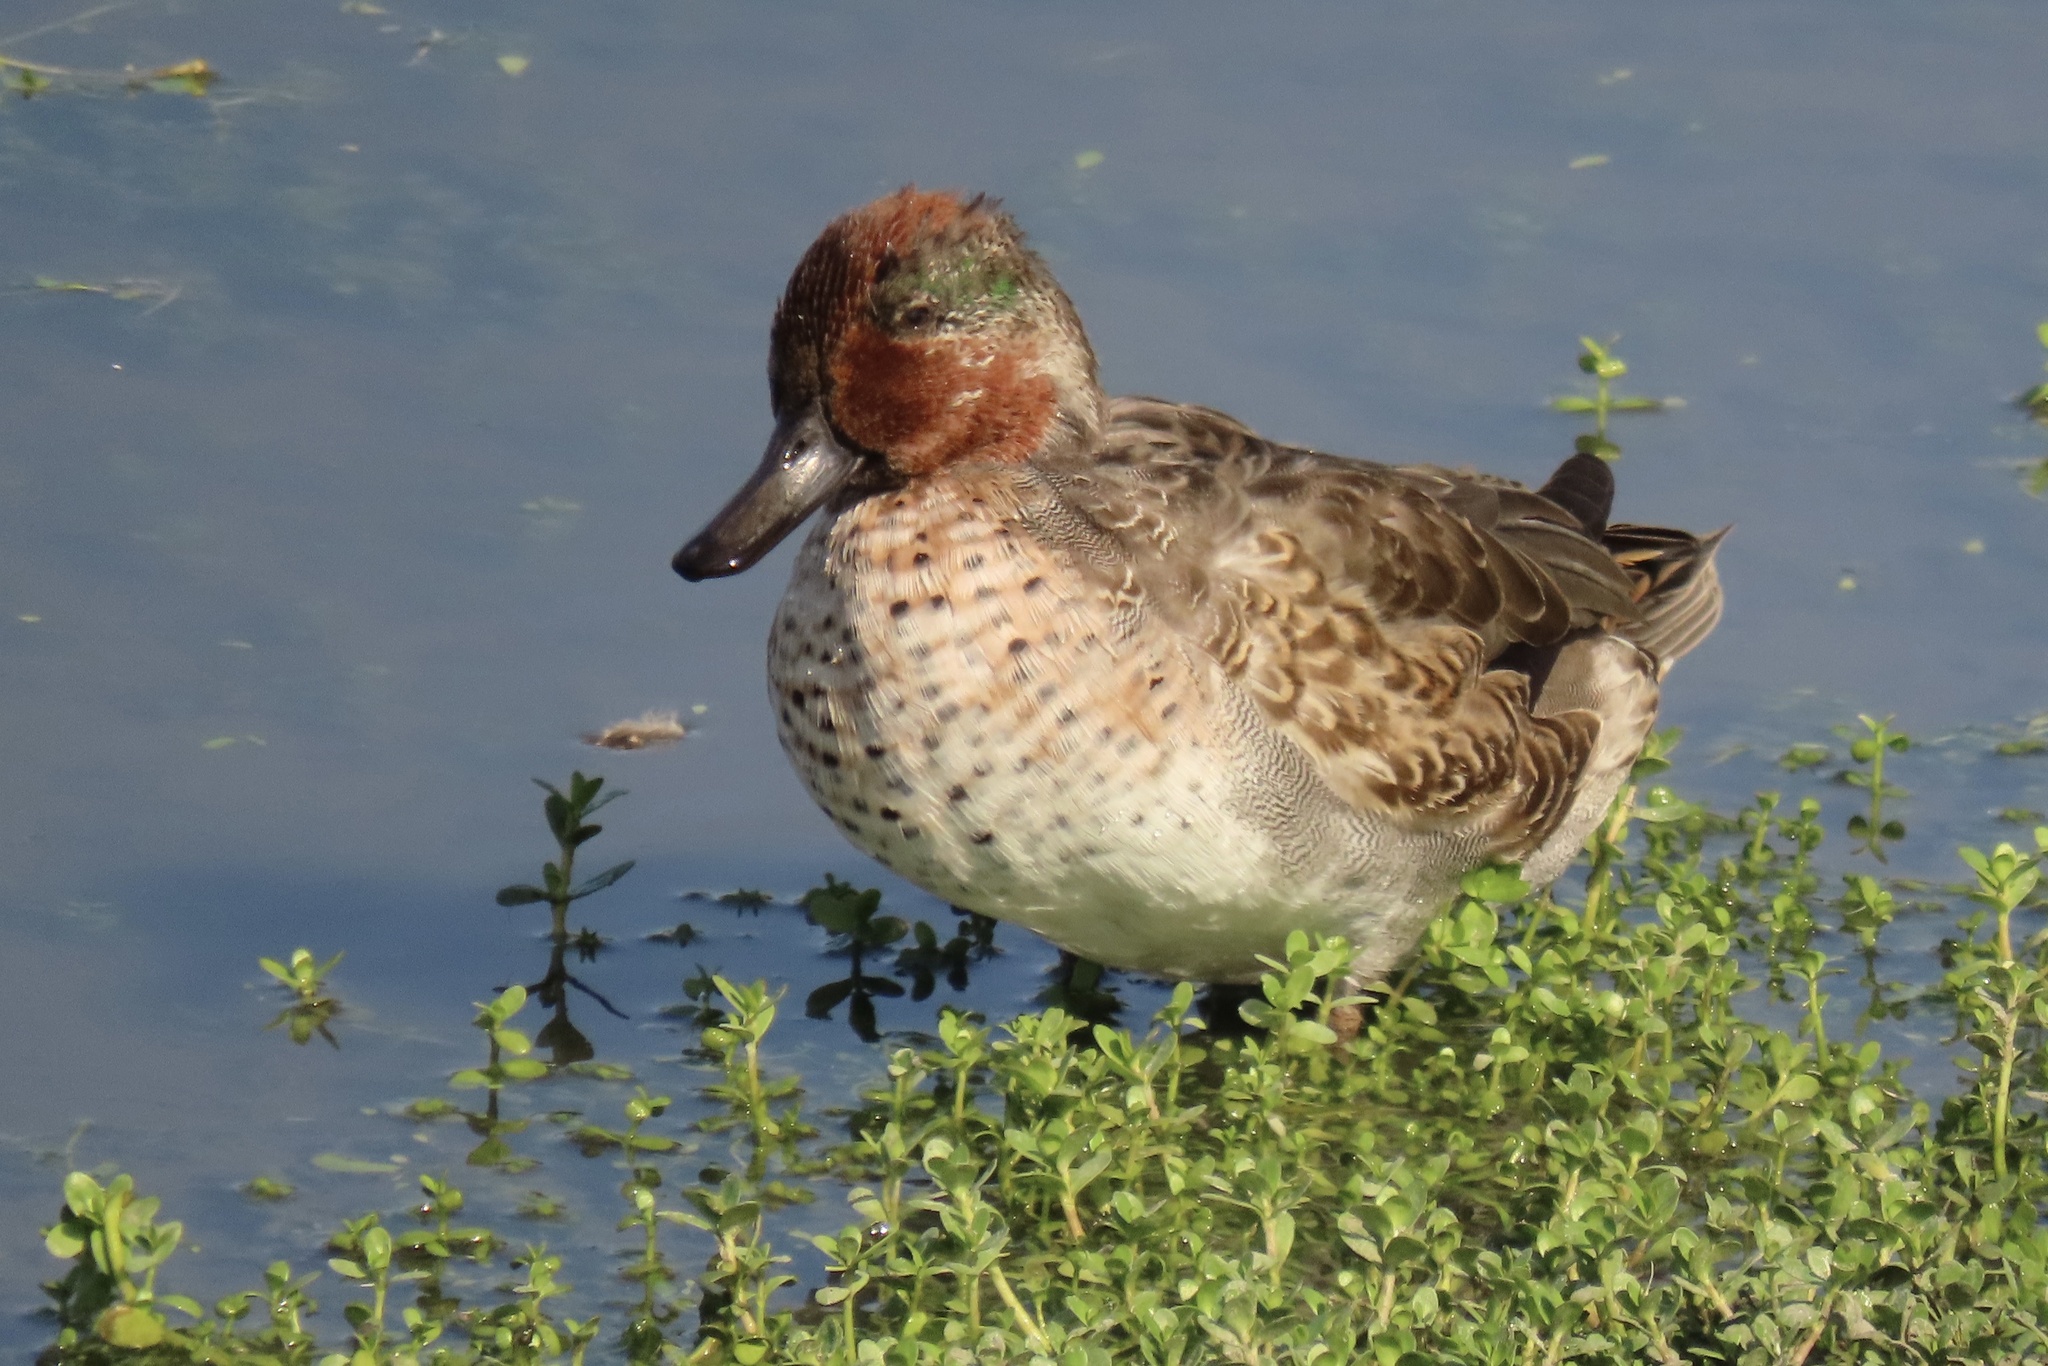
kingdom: Animalia
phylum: Chordata
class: Aves
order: Anseriformes
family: Anatidae
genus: Anas
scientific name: Anas crecca
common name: Eurasian teal
